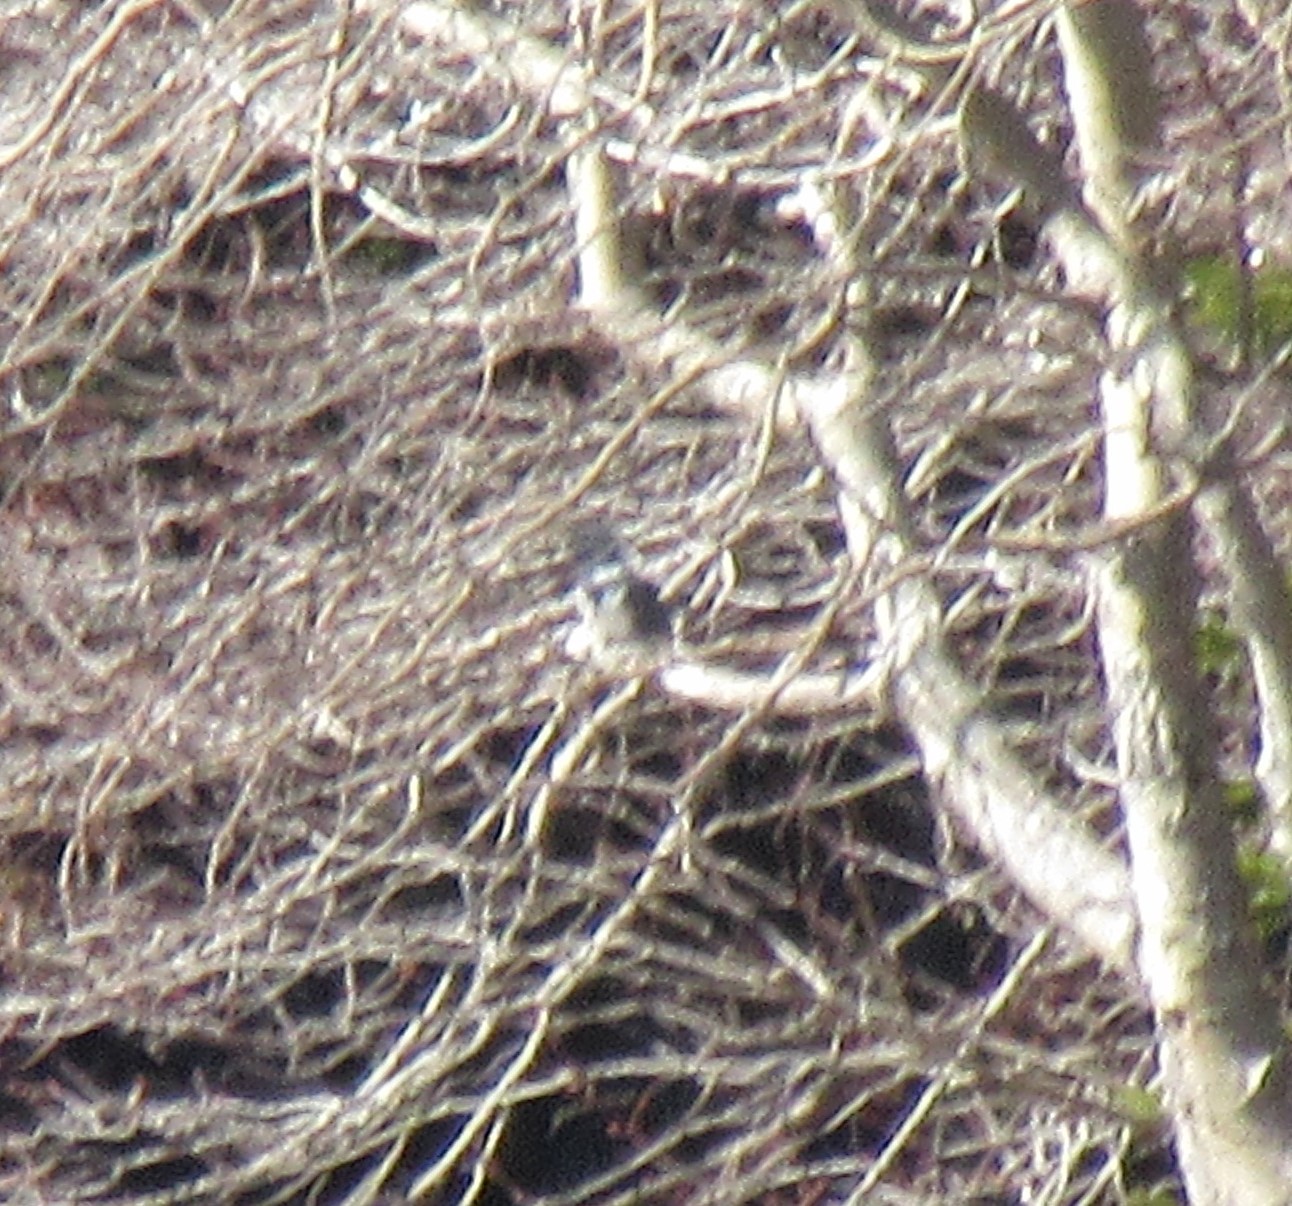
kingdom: Animalia
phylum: Chordata
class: Aves
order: Coraciiformes
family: Alcedinidae
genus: Megaceryle
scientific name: Megaceryle alcyon
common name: Belted kingfisher
